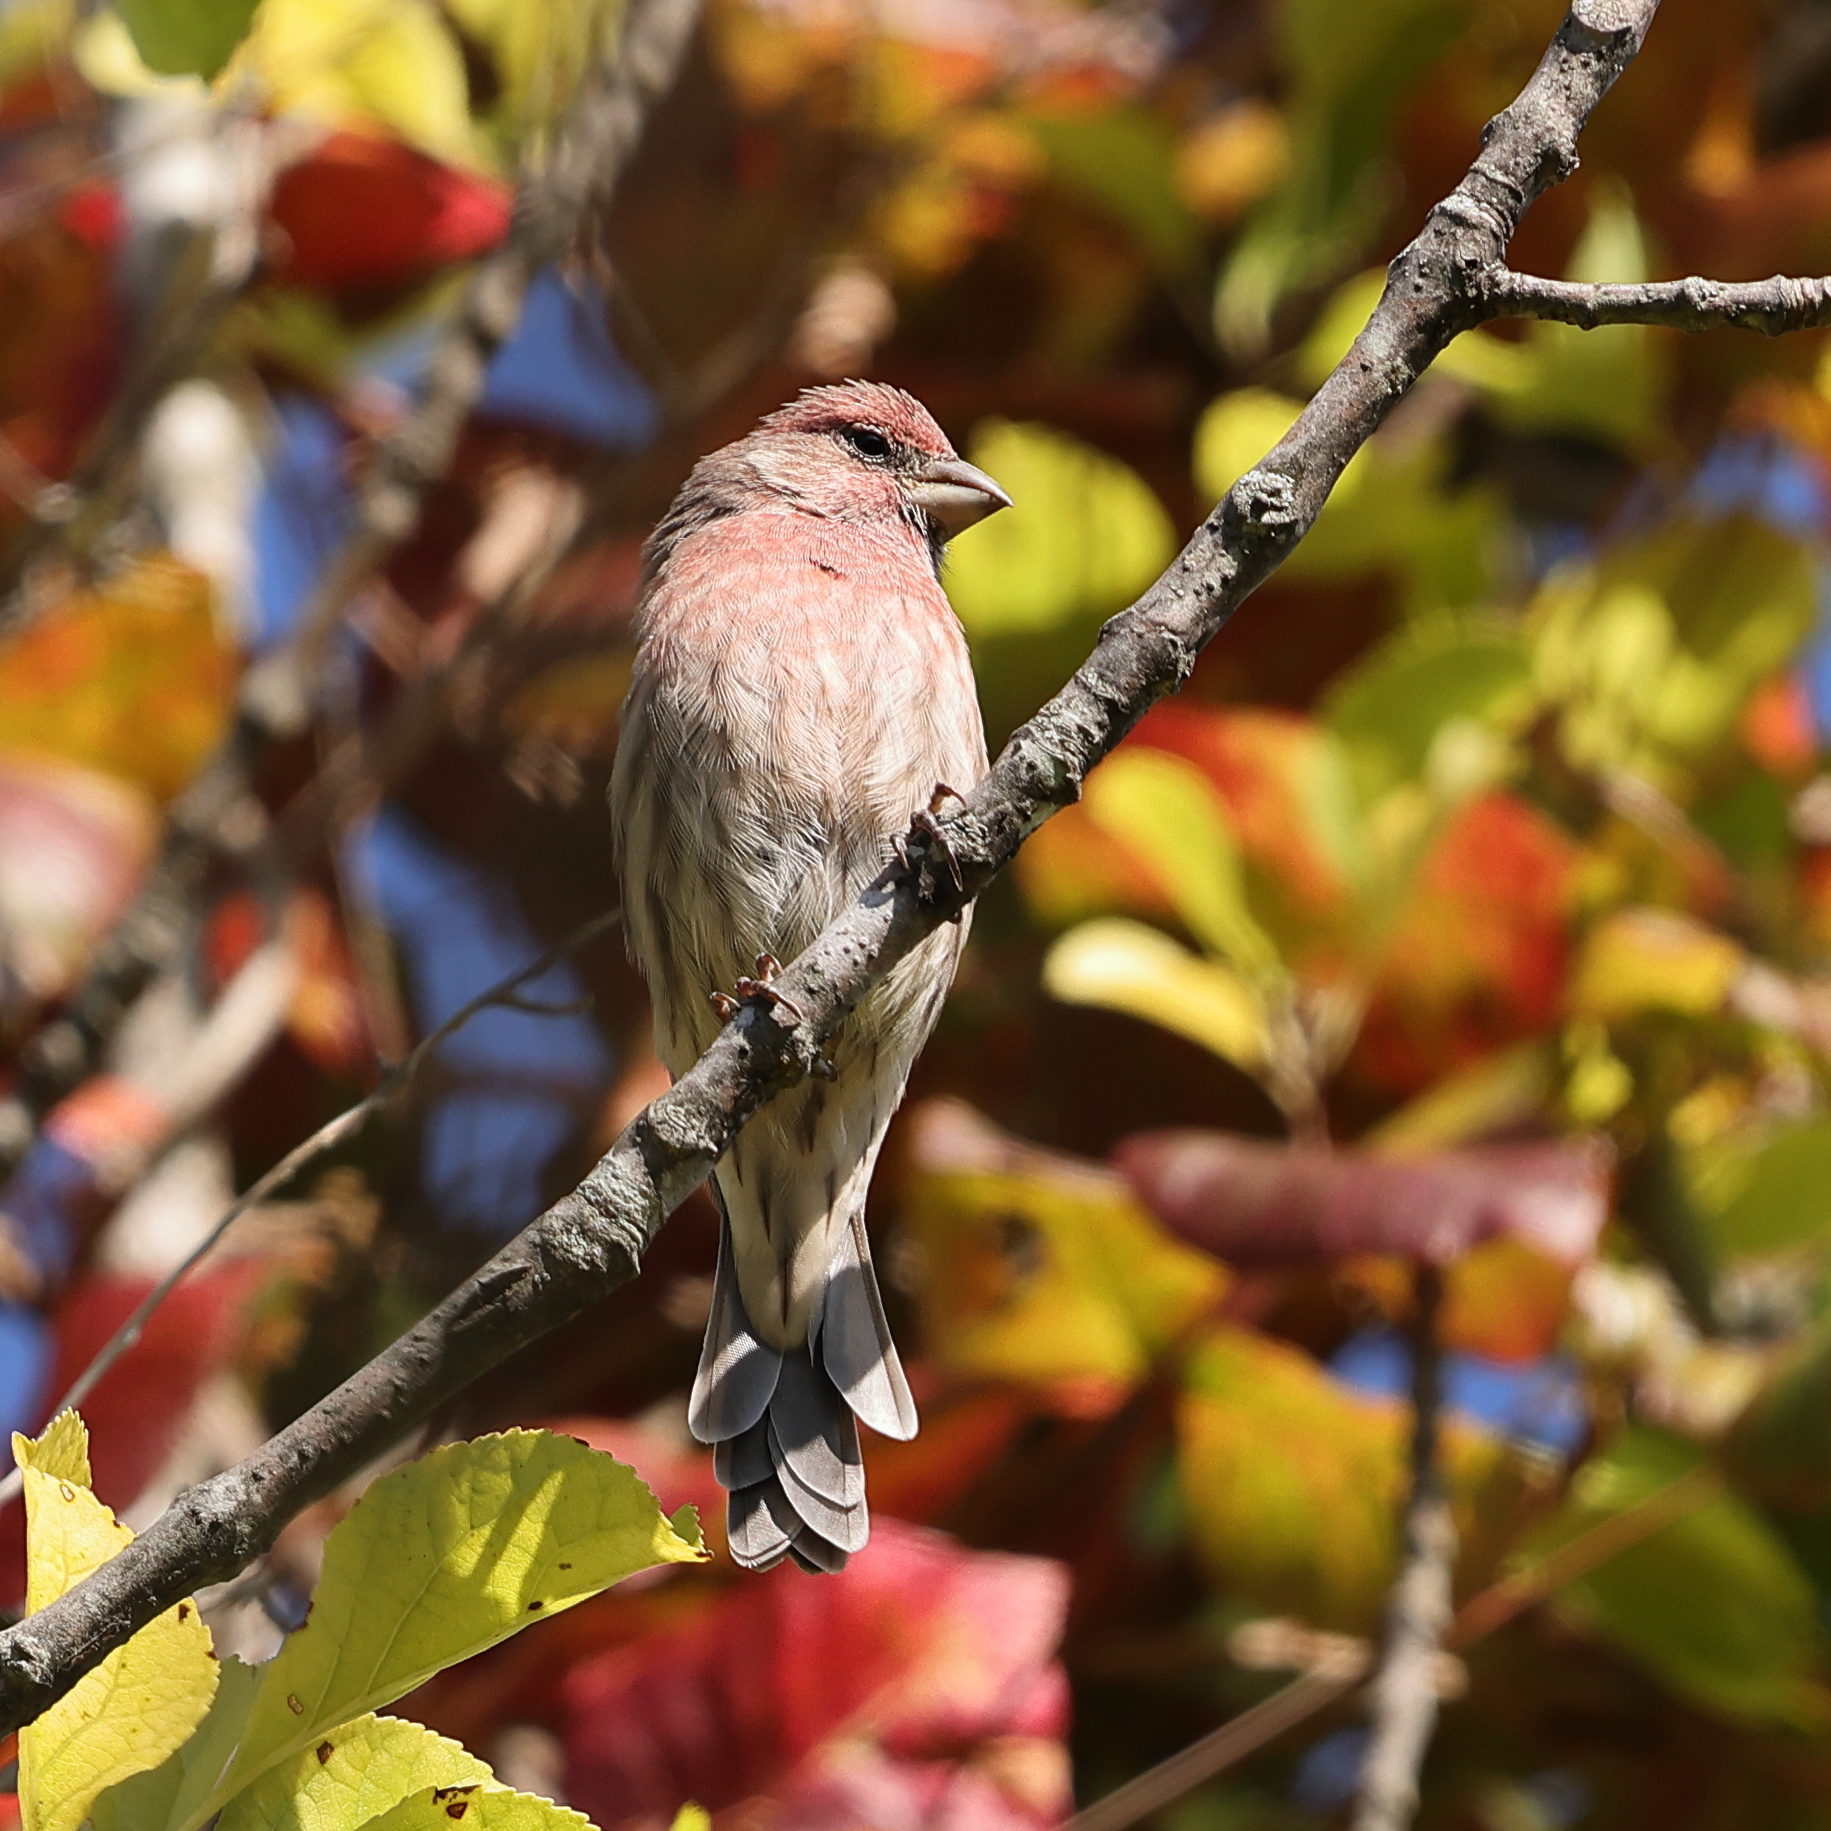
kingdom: Animalia
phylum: Chordata
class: Aves
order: Passeriformes
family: Fringillidae
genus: Haemorhous
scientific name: Haemorhous mexicanus
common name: House finch
